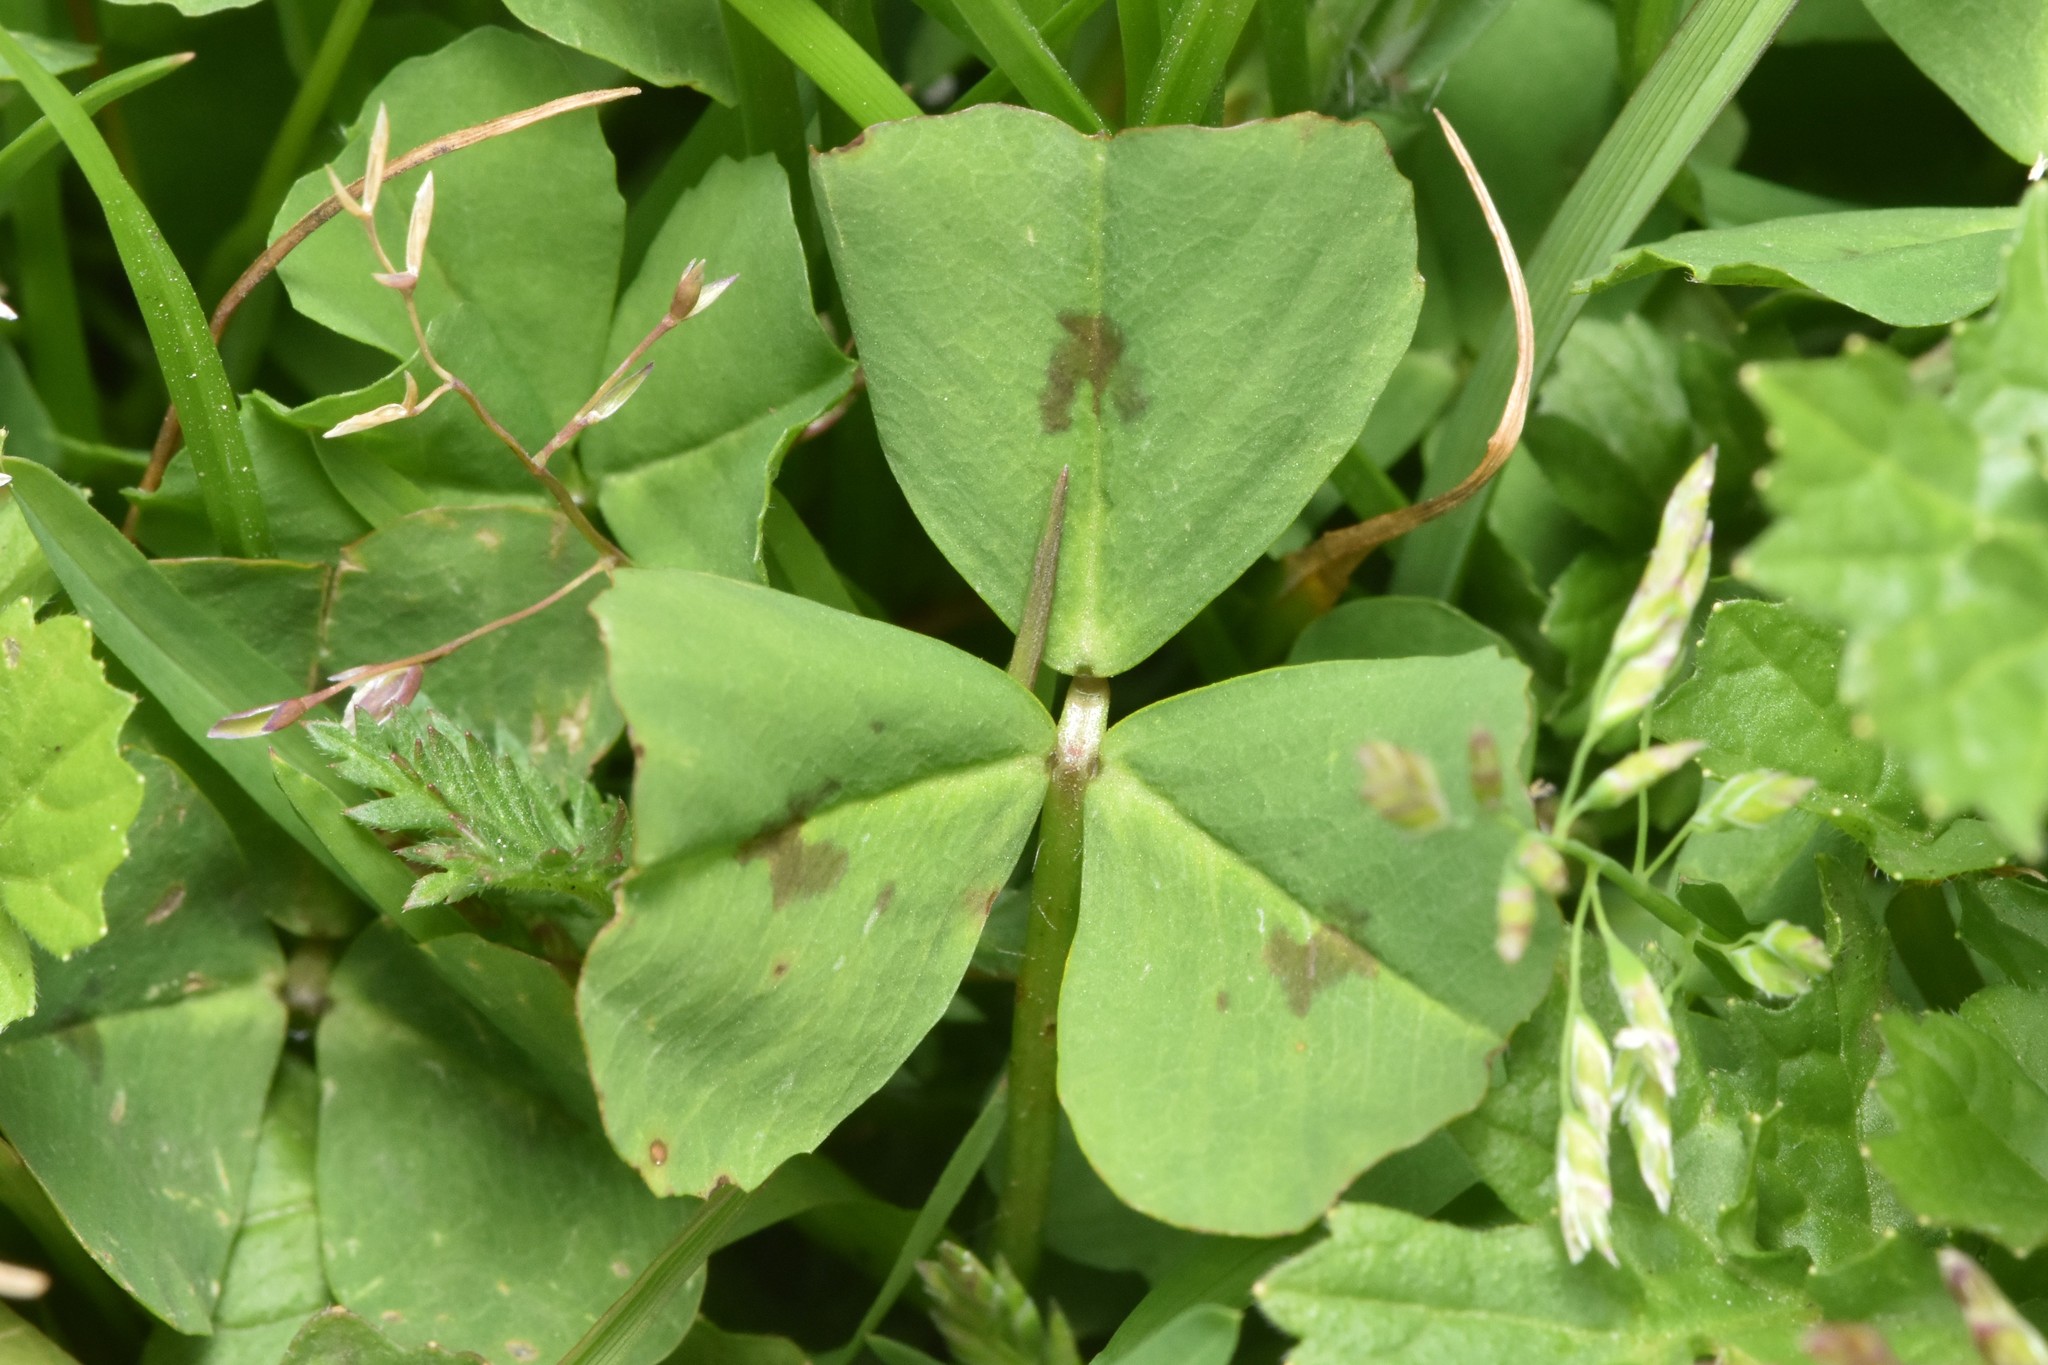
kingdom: Plantae
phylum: Tracheophyta
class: Magnoliopsida
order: Fabales
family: Fabaceae
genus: Medicago
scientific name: Medicago arabica
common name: Spotted medick
